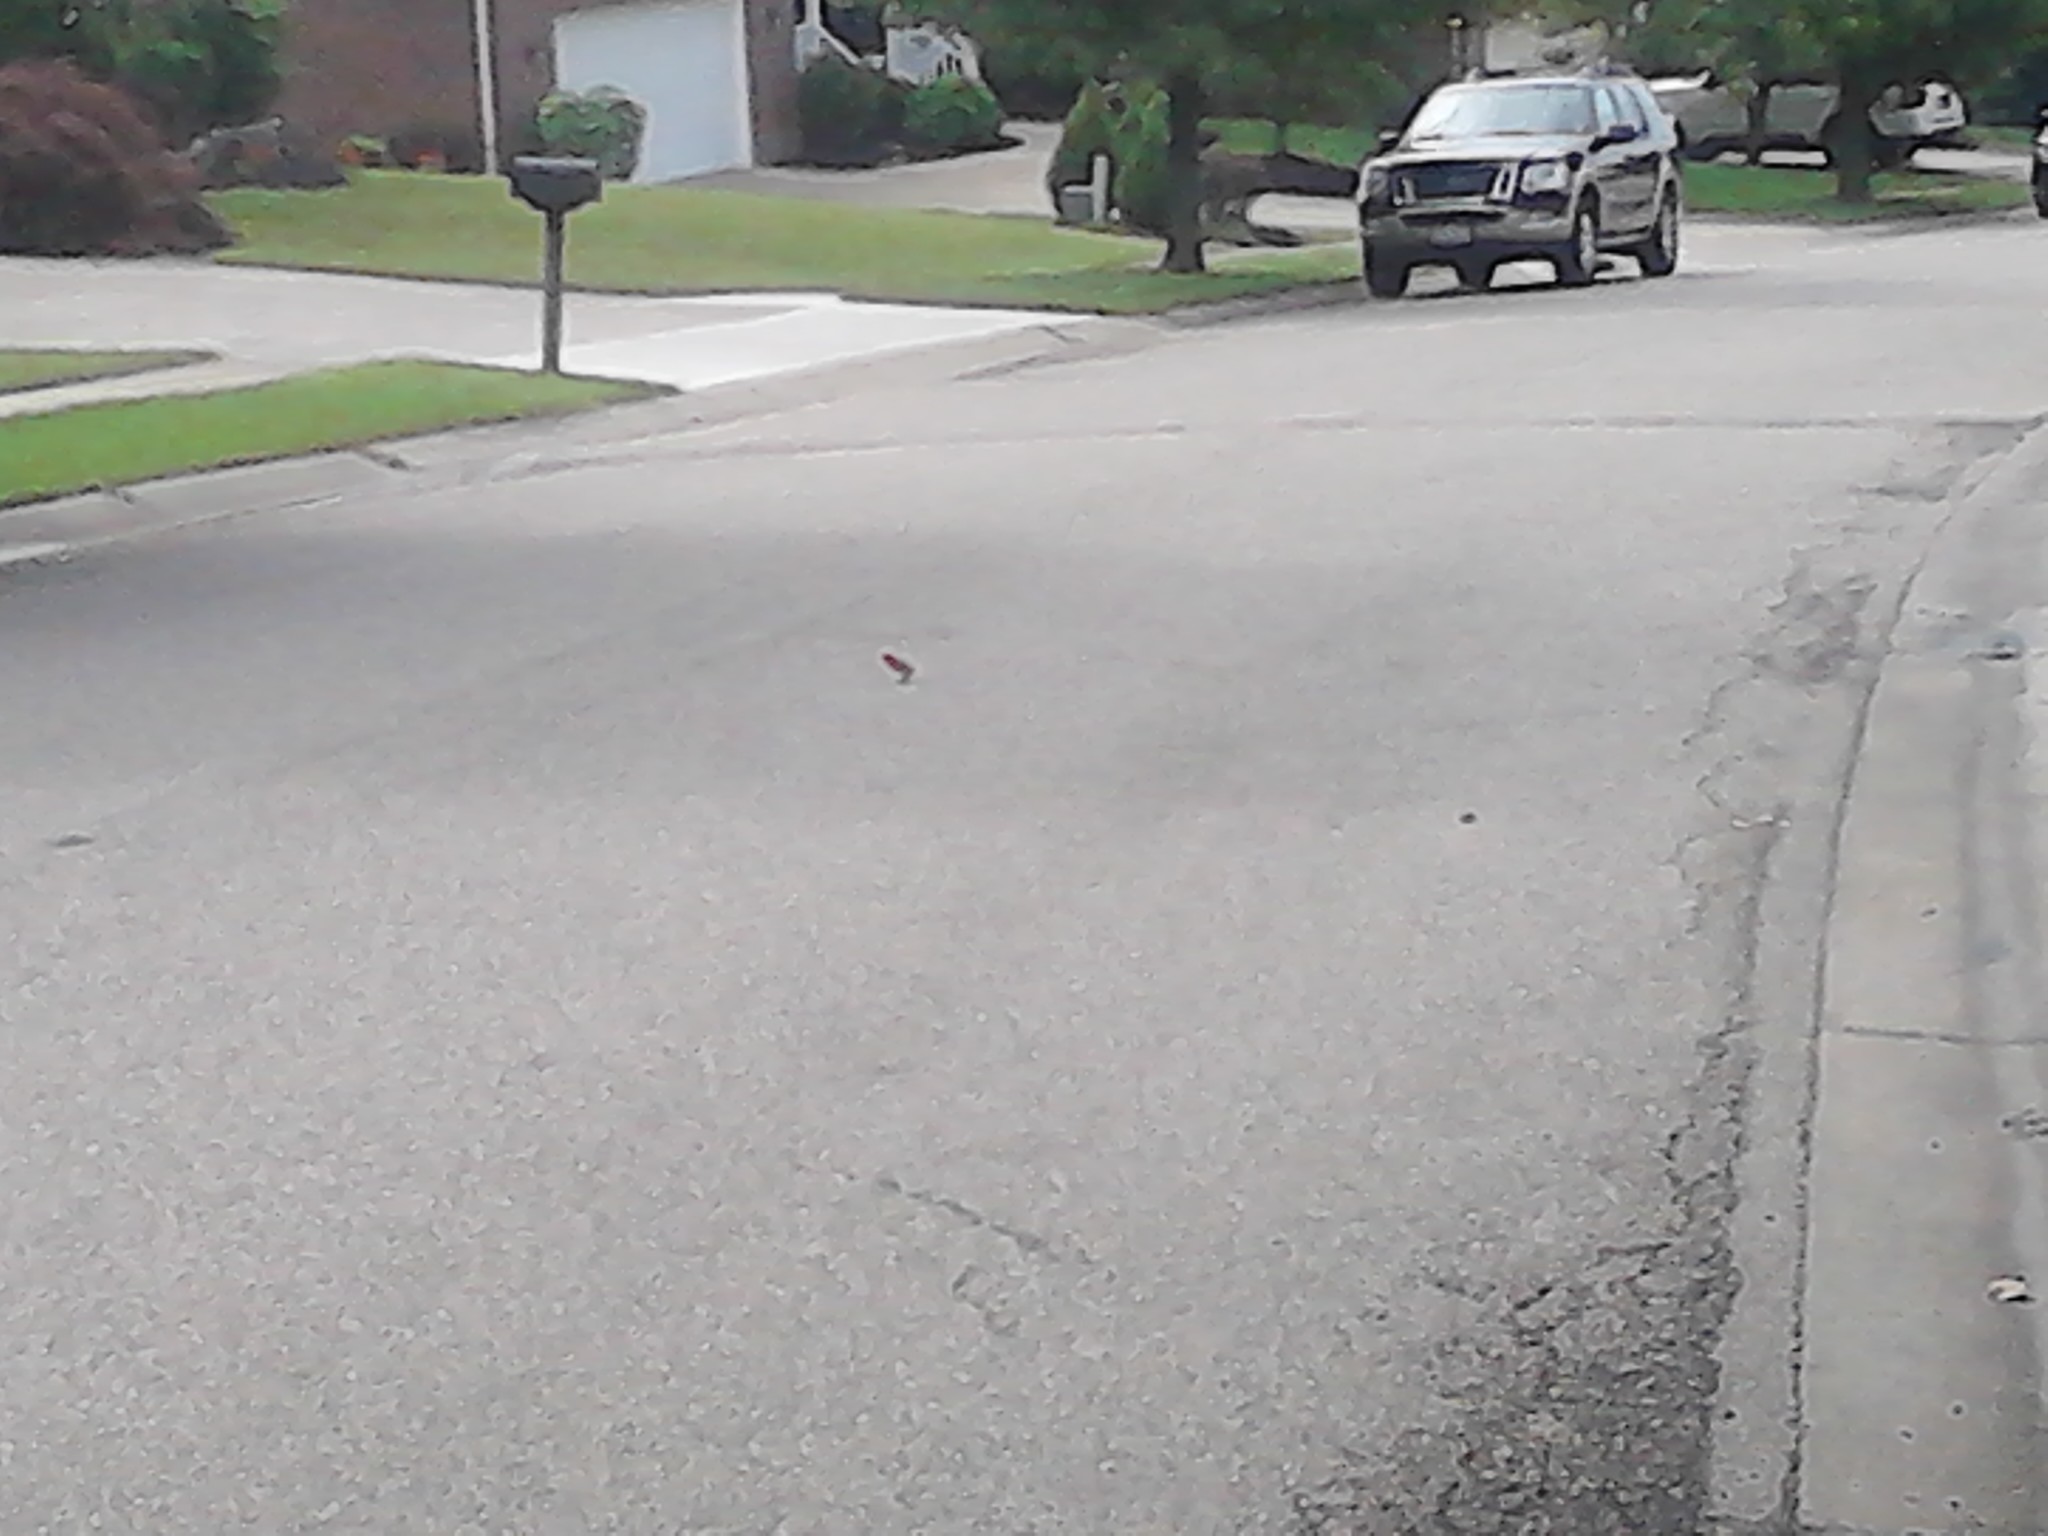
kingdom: Animalia
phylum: Chordata
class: Aves
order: Passeriformes
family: Cardinalidae
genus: Piranga
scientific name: Piranga olivacea
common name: Scarlet tanager
